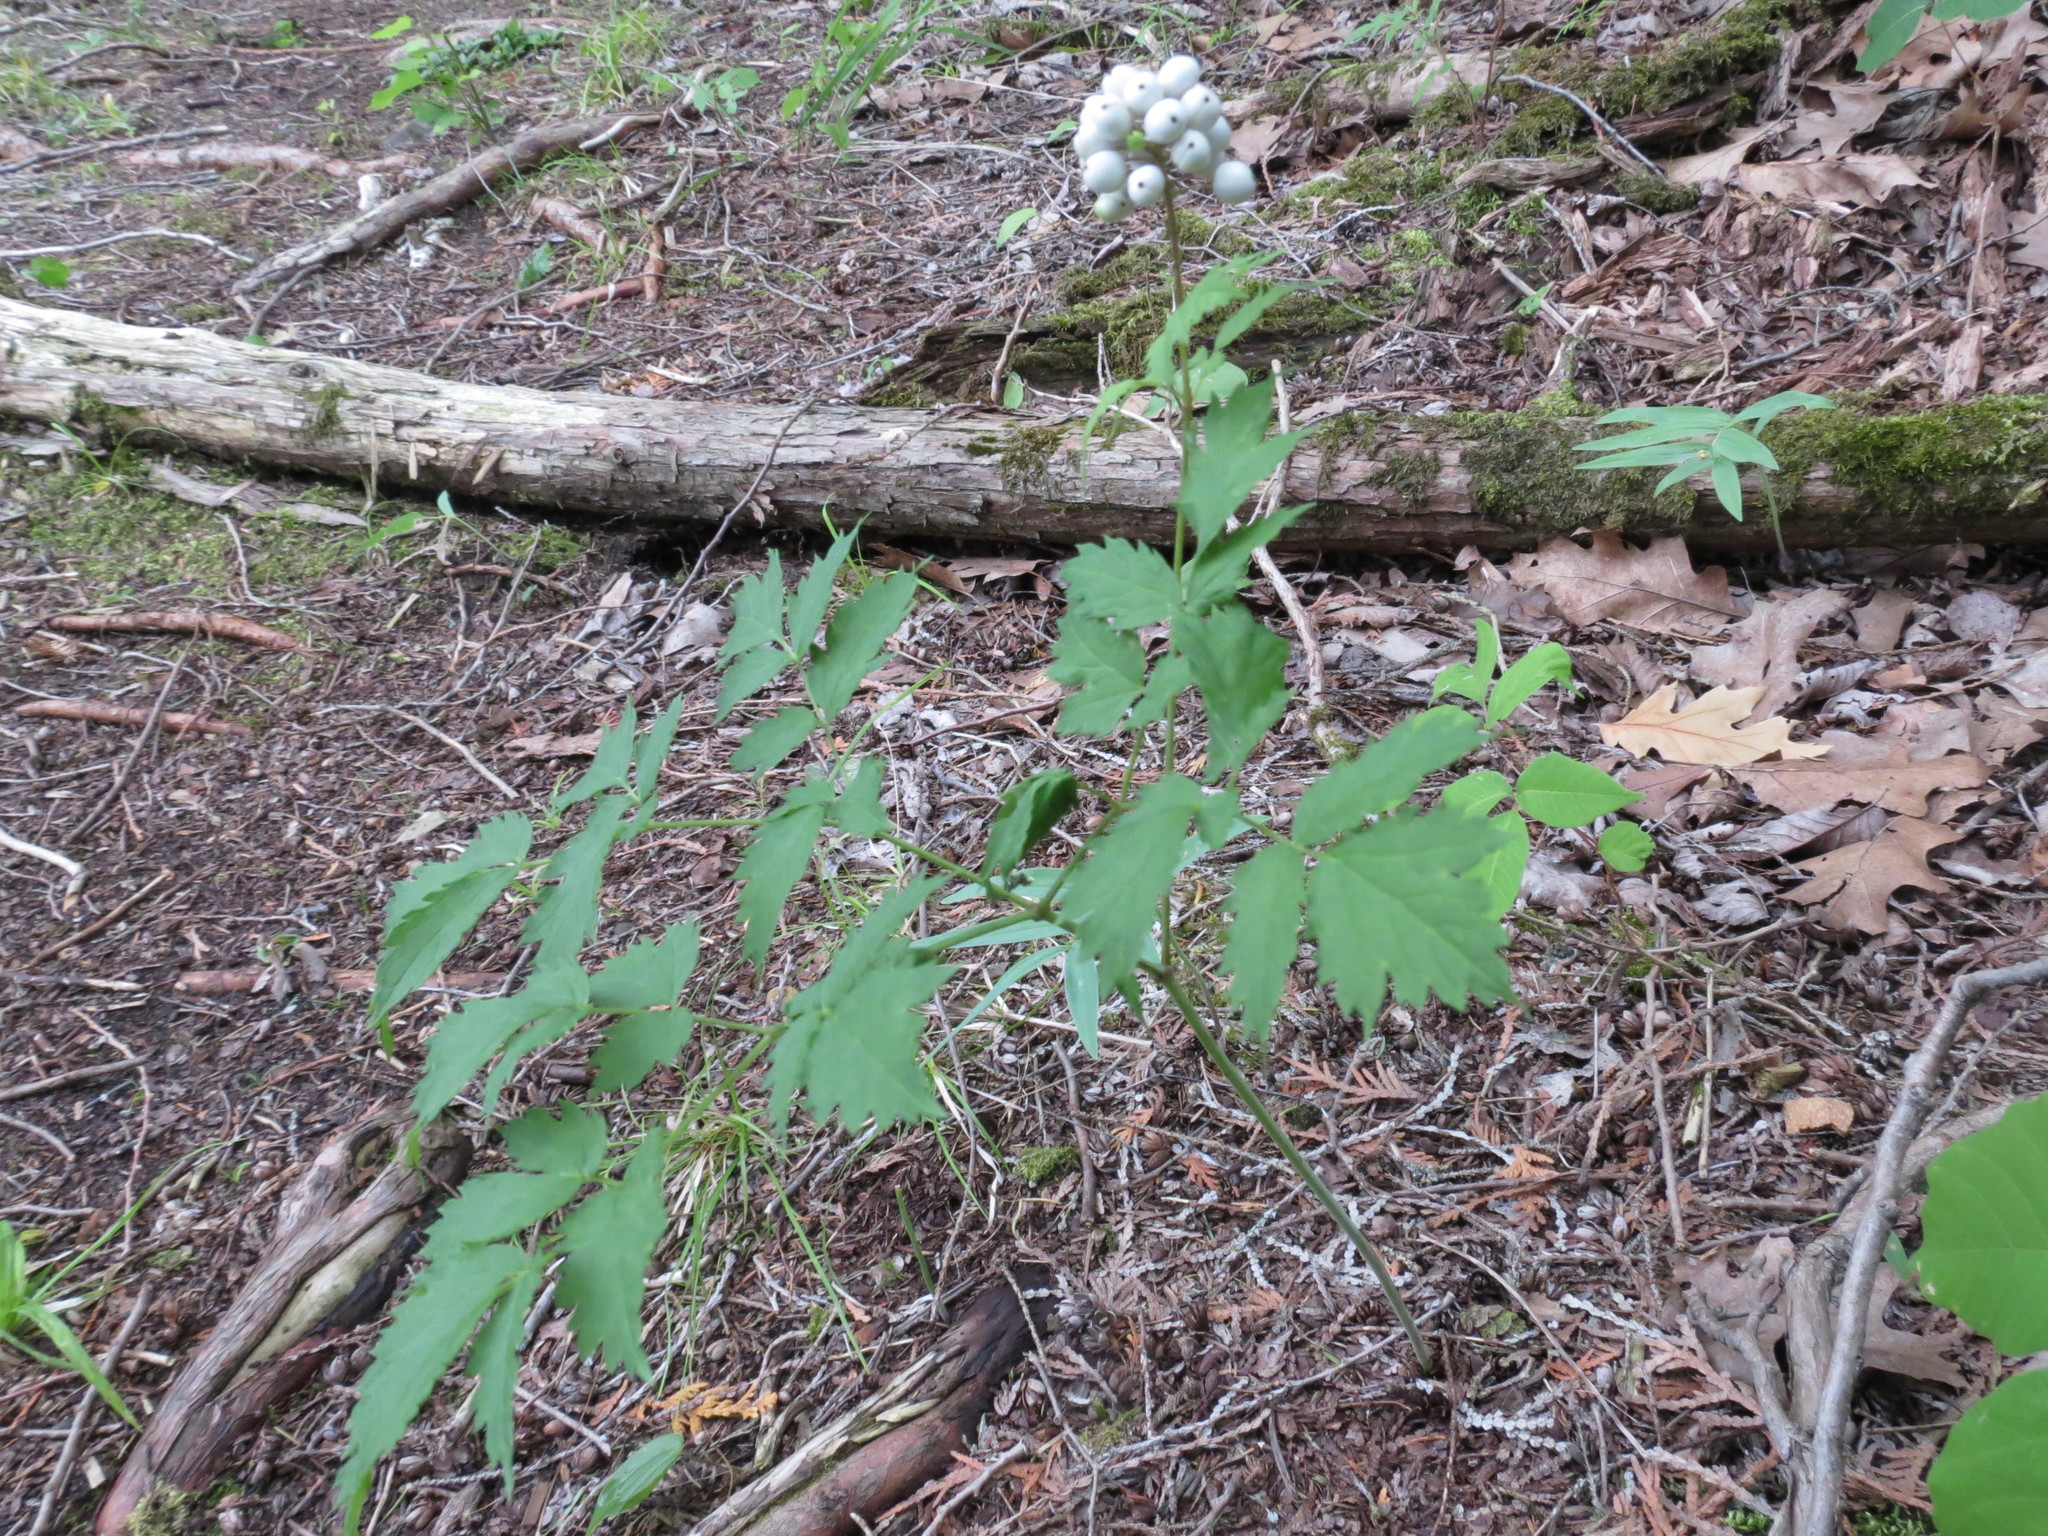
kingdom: Plantae
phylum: Tracheophyta
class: Magnoliopsida
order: Ranunculales
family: Ranunculaceae
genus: Actaea
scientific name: Actaea rubra
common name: Red baneberry
